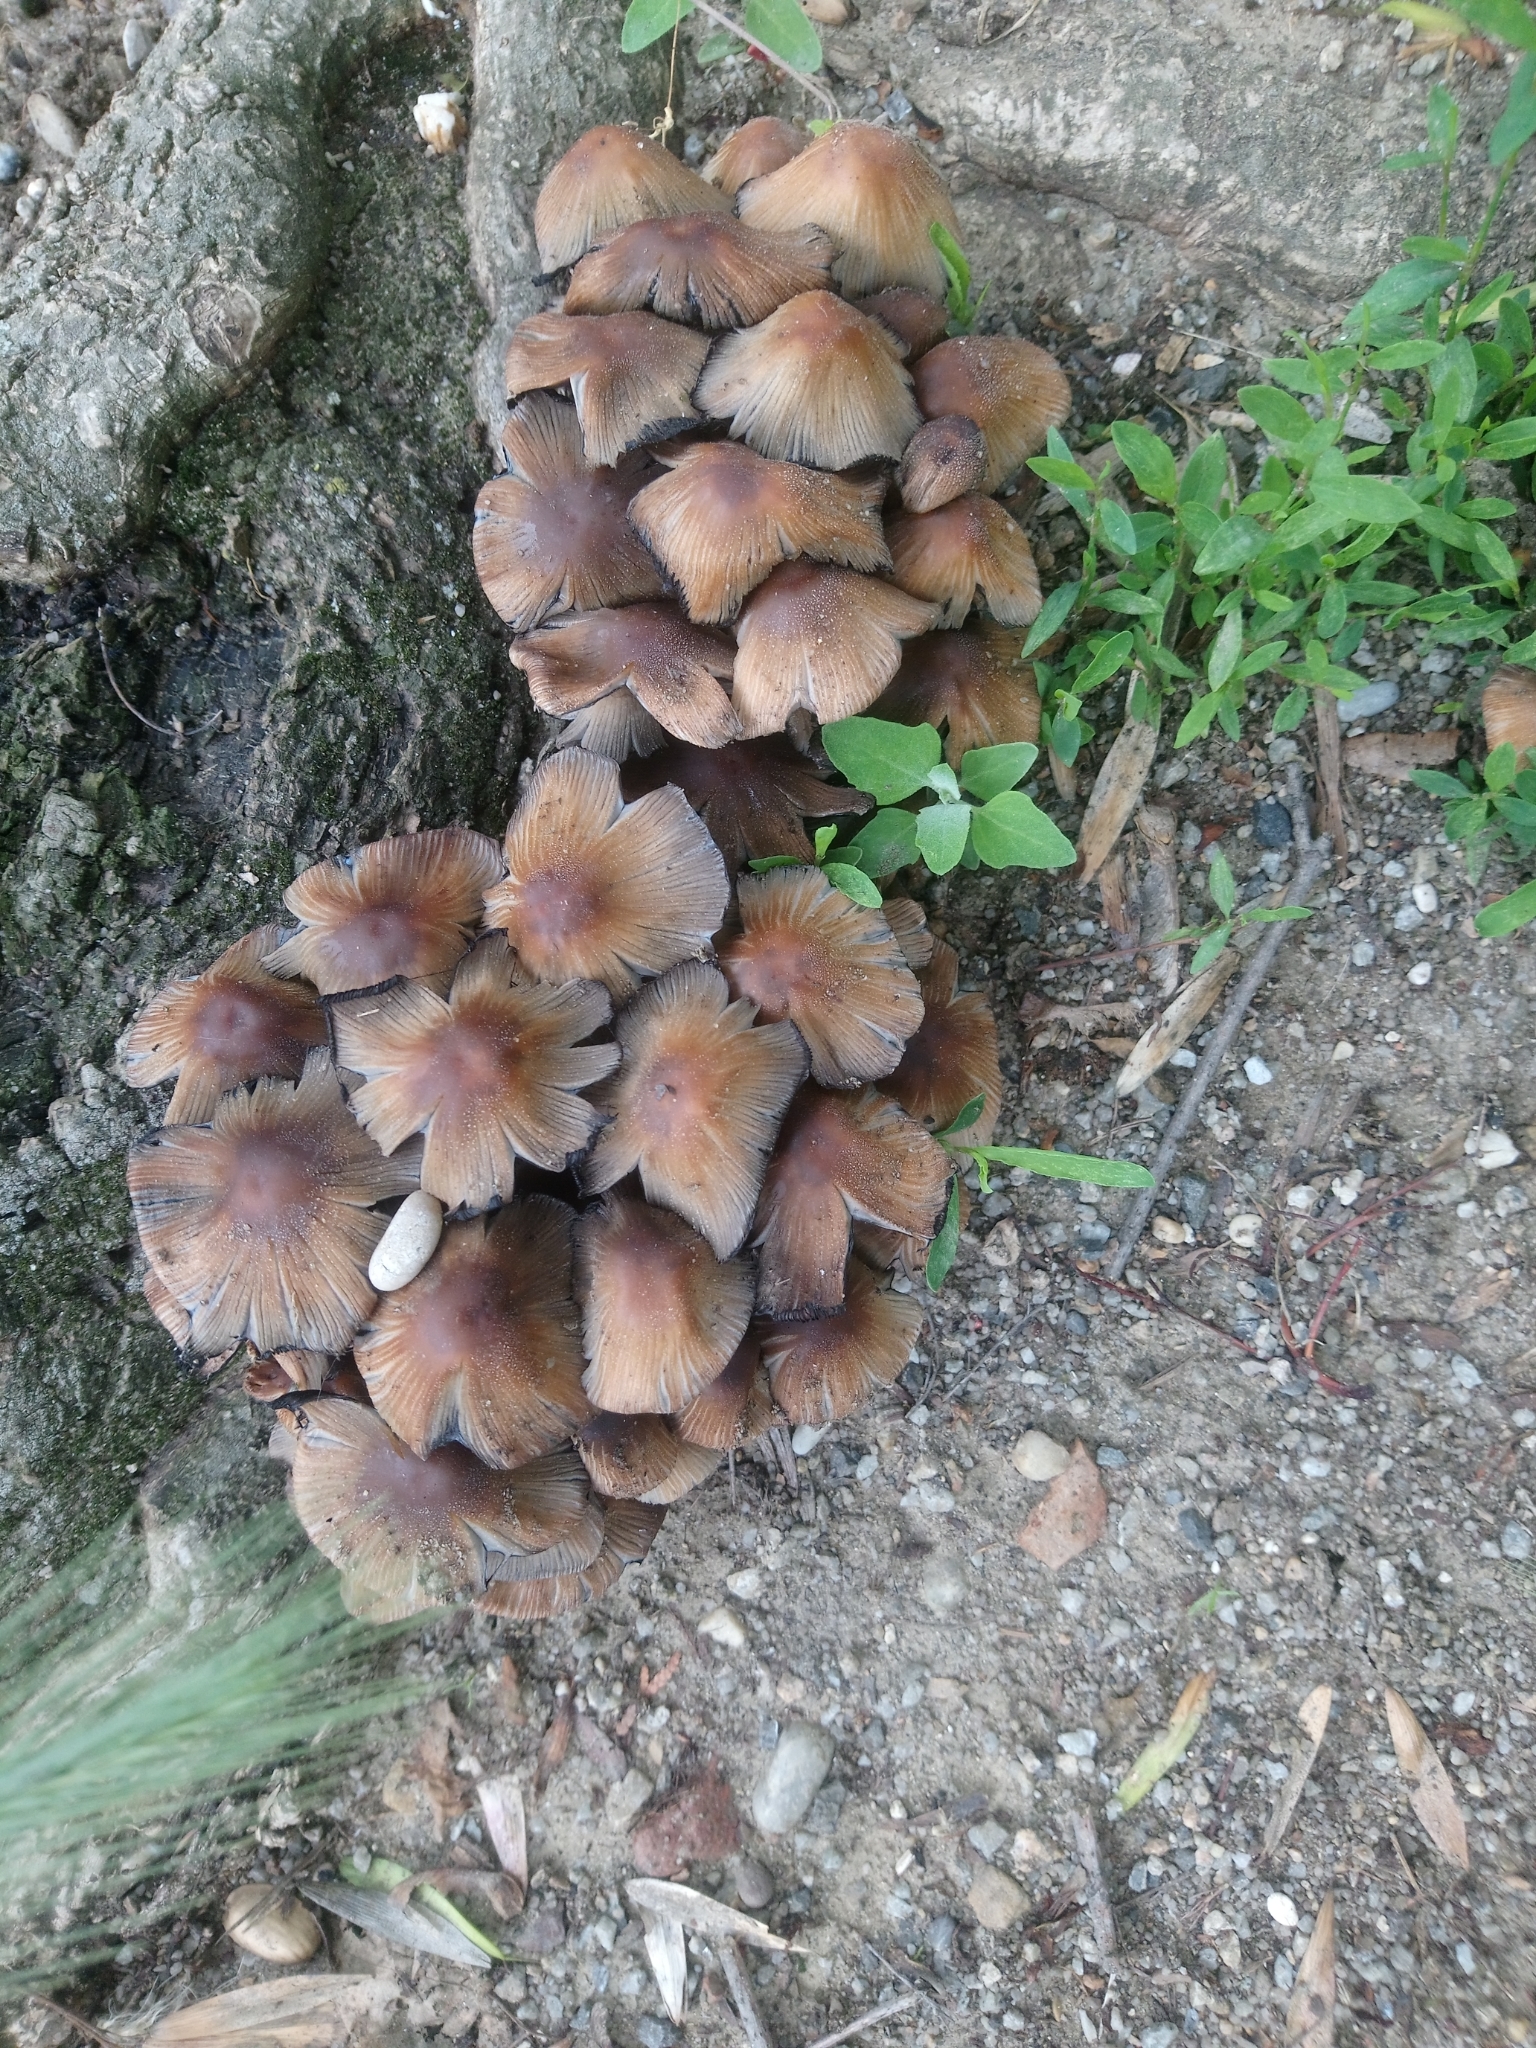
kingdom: Fungi
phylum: Basidiomycota
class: Agaricomycetes
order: Agaricales
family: Psathyrellaceae
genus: Coprinellus
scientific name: Coprinellus micaceus
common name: Glistening ink-cap
